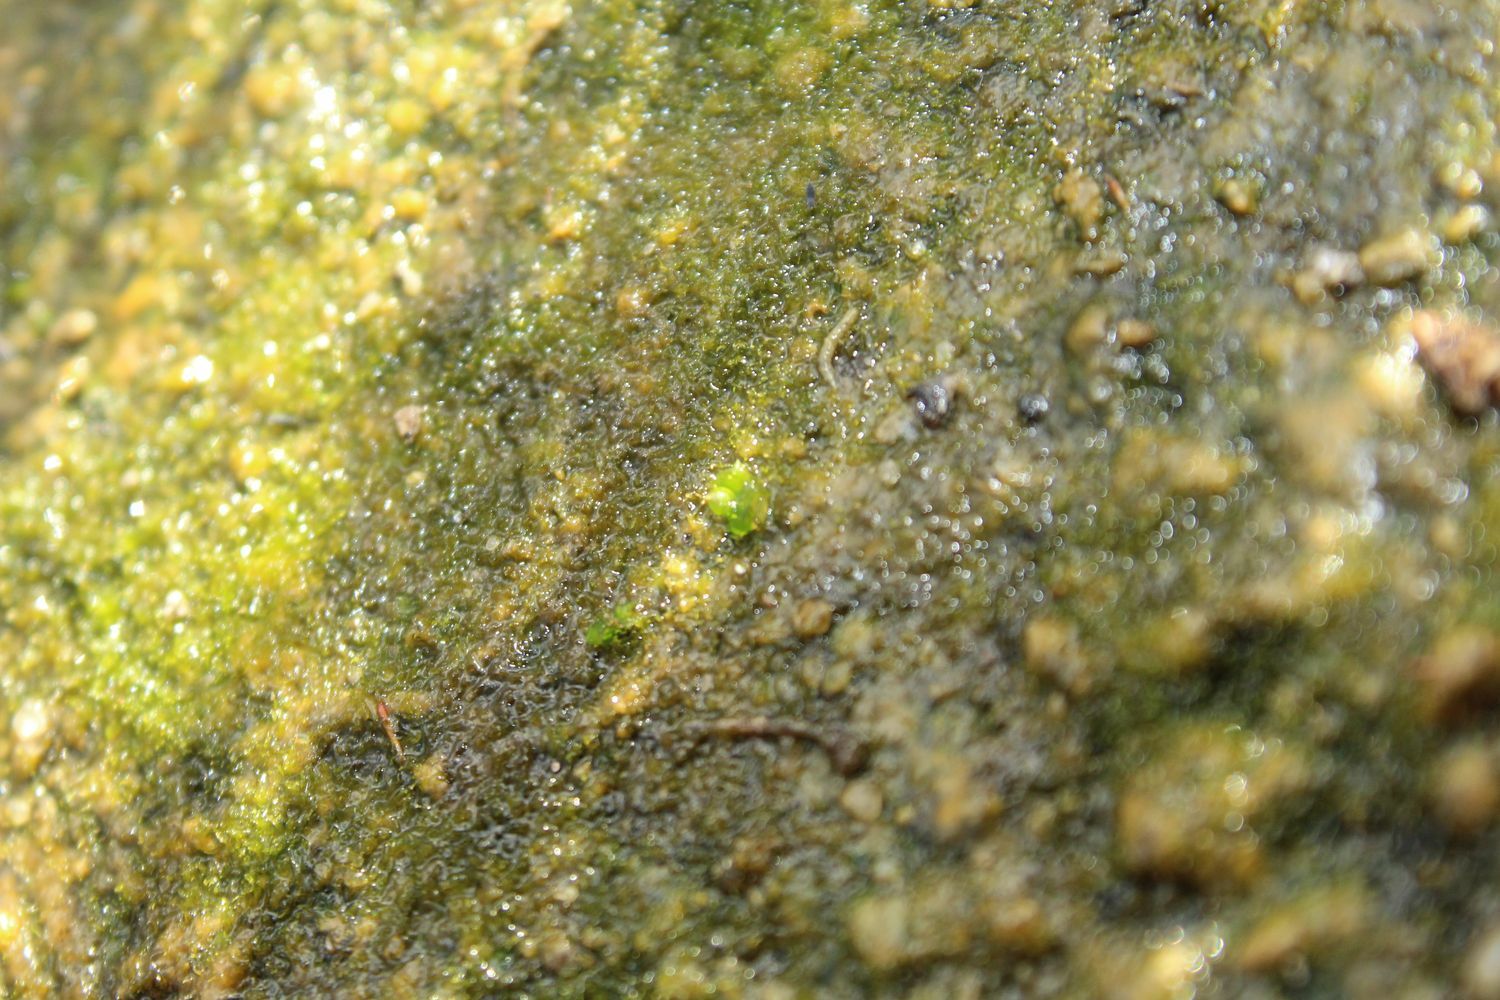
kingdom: Plantae
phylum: Marchantiophyta
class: Marchantiopsida
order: Sphaerocarpales
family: Riellaceae
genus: Austroriella
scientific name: Austroriella salta
